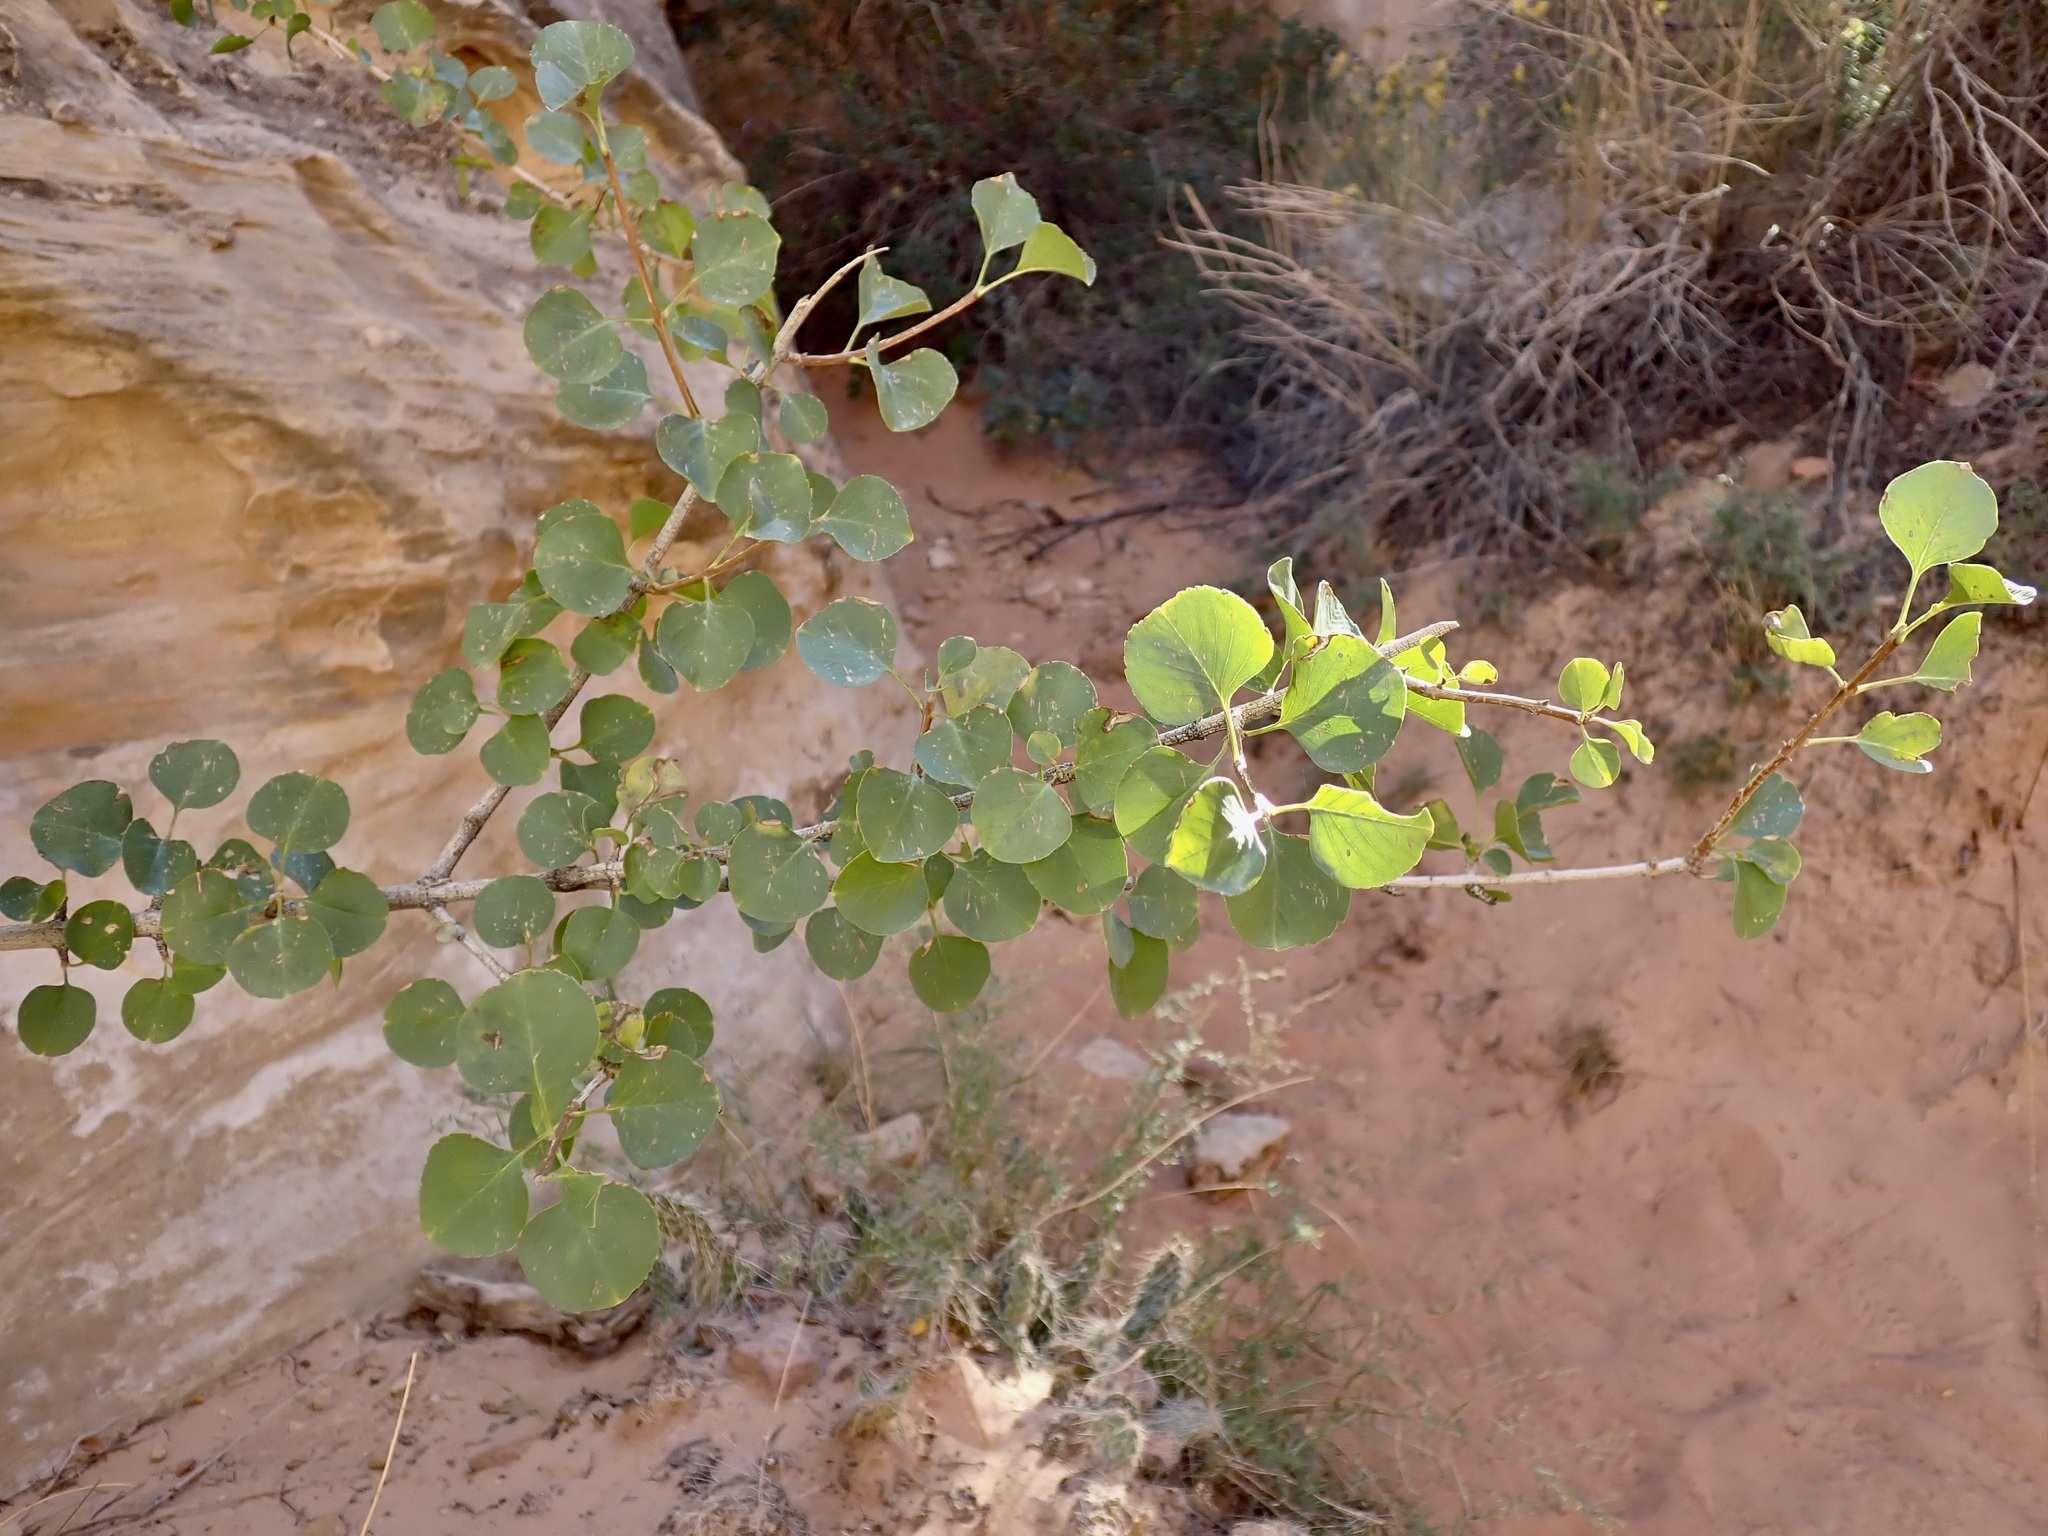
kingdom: Plantae
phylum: Tracheophyta
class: Magnoliopsida
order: Lamiales
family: Oleaceae
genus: Fraxinus
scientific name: Fraxinus anomala
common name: Utah ash
